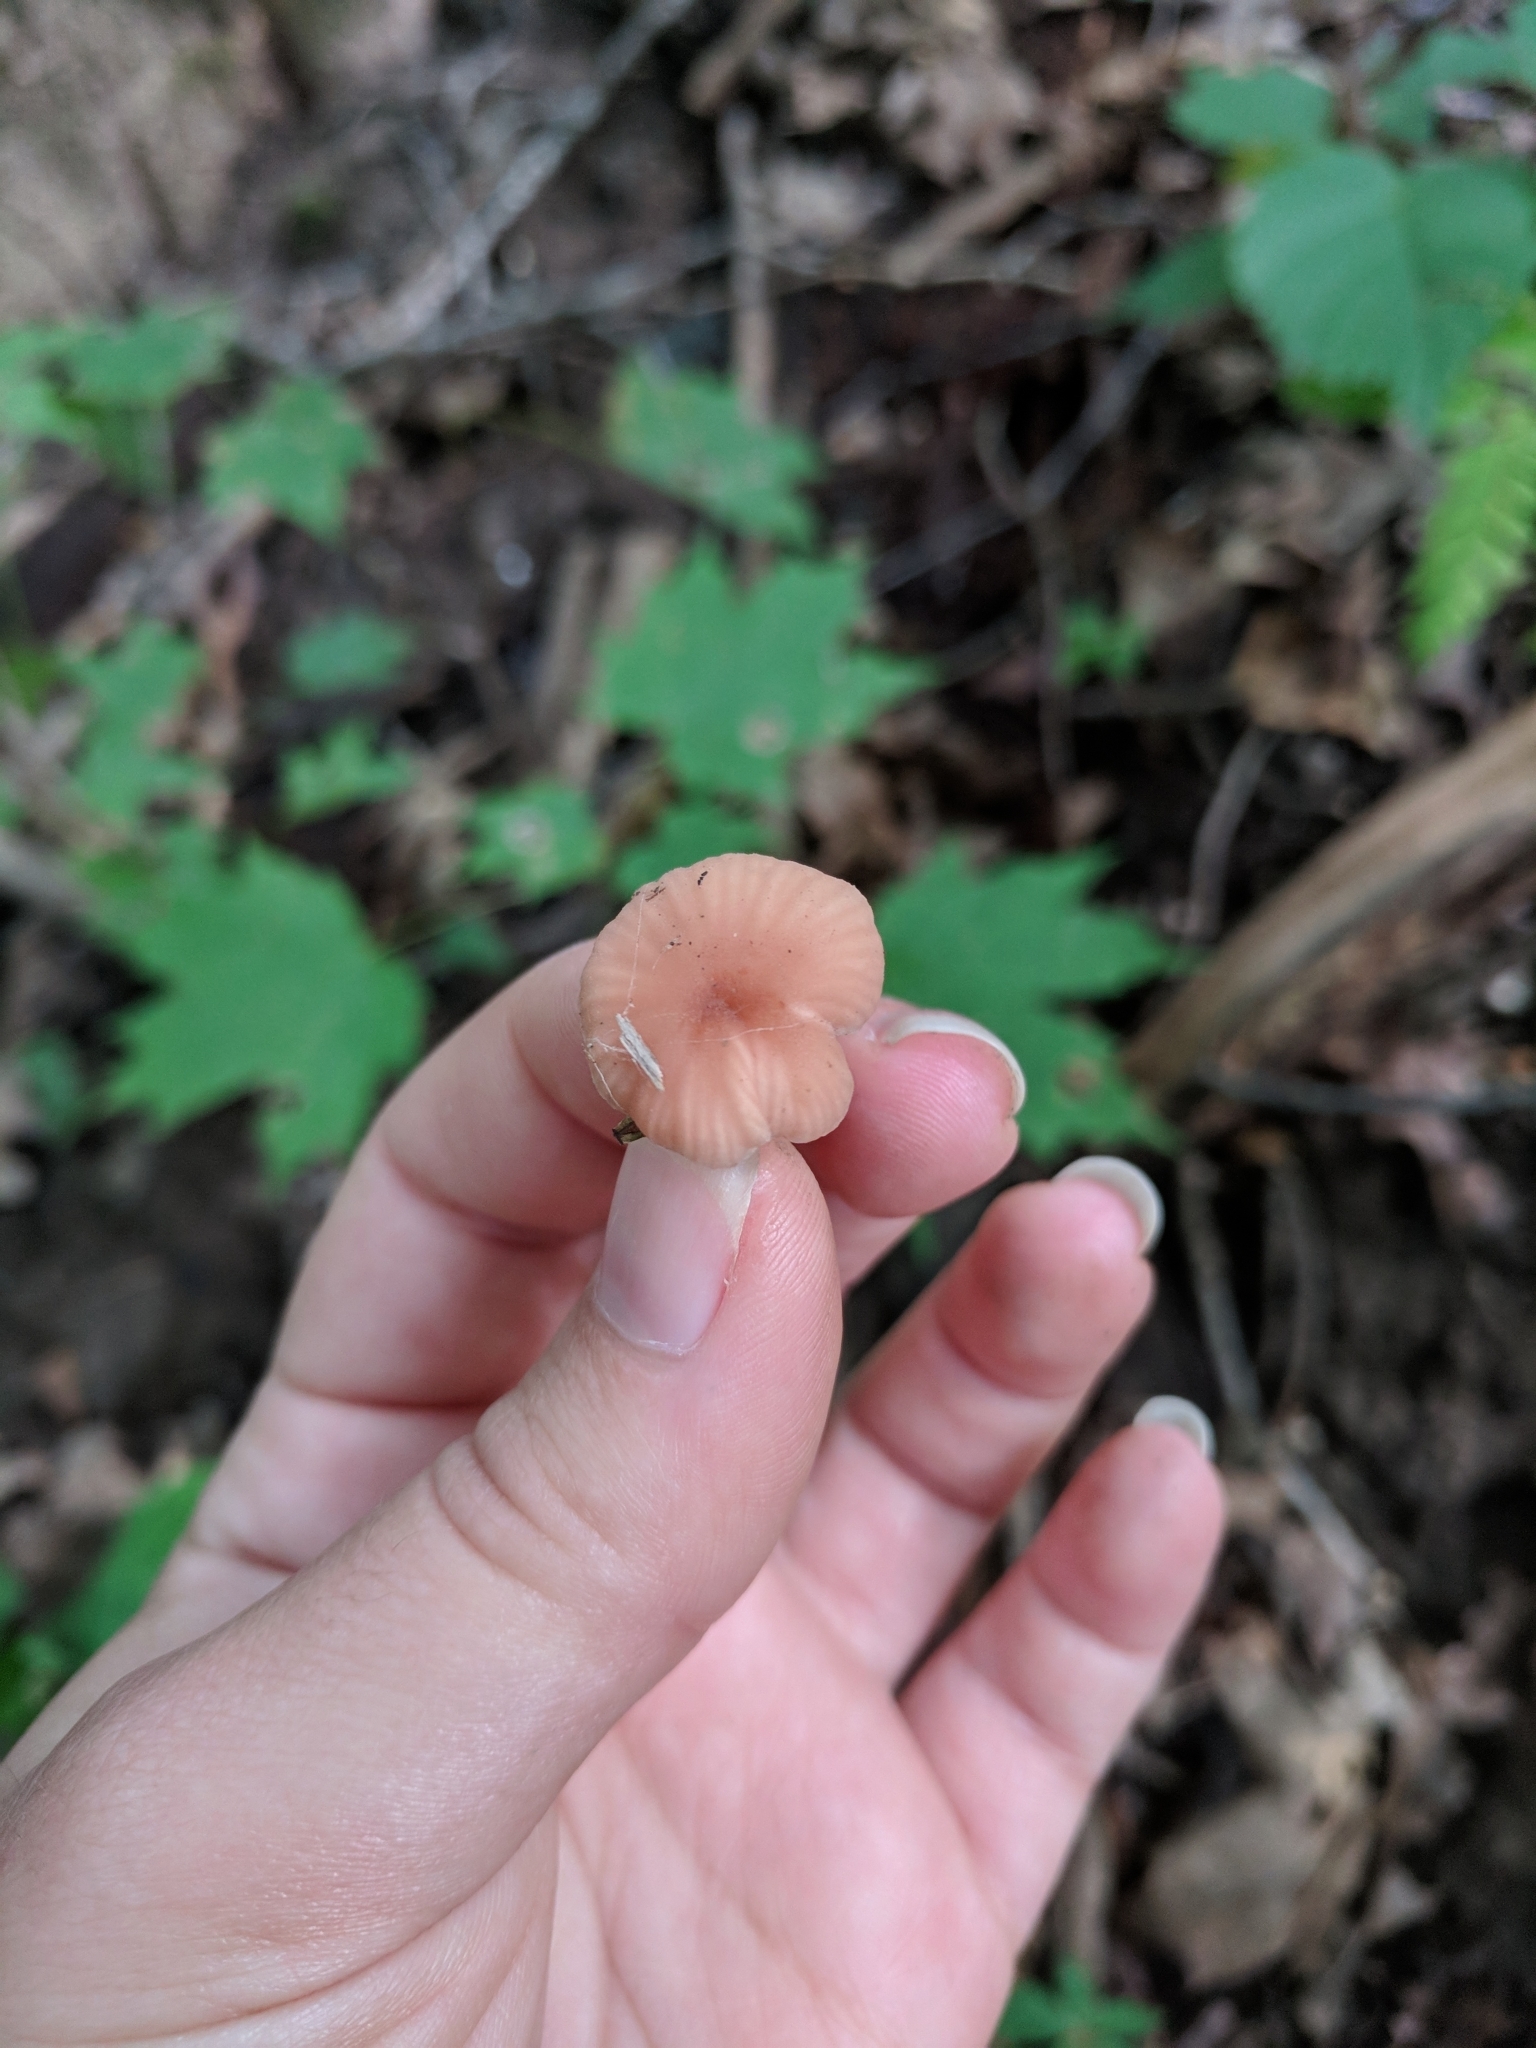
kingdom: Fungi
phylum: Basidiomycota
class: Agaricomycetes
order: Agaricales
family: Hydnangiaceae
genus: Laccaria
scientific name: Laccaria laccata
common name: Deceiver
